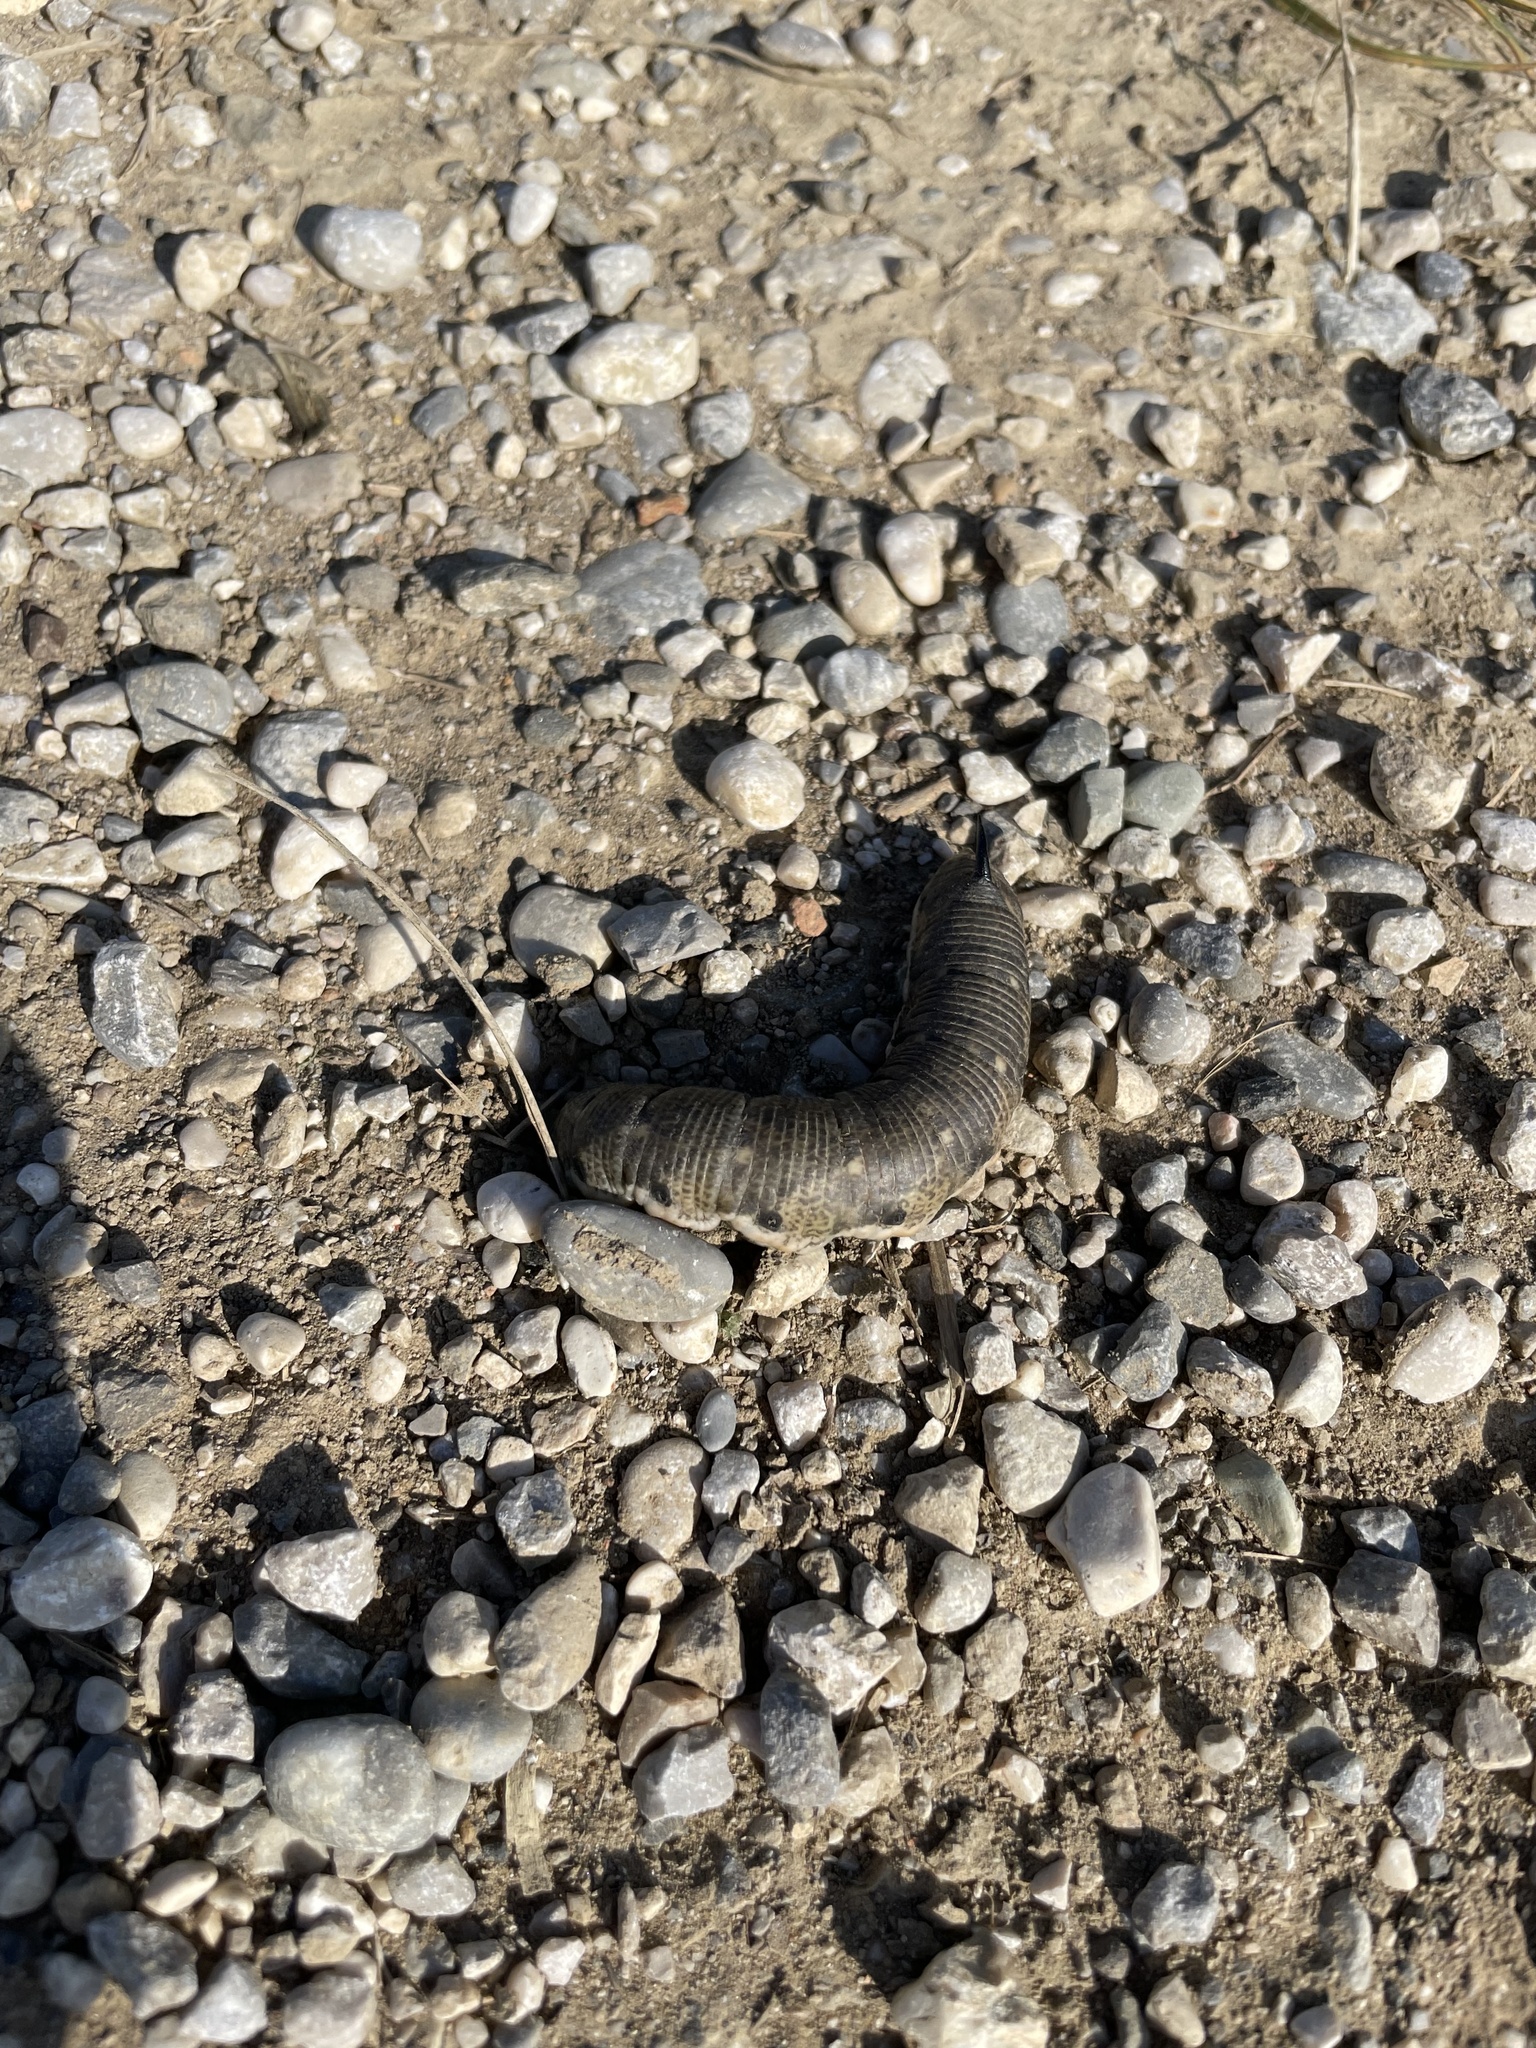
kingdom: Animalia
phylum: Arthropoda
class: Insecta
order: Lepidoptera
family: Sphingidae
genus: Agrius
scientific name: Agrius convolvuli
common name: Convolvulus hawkmoth
